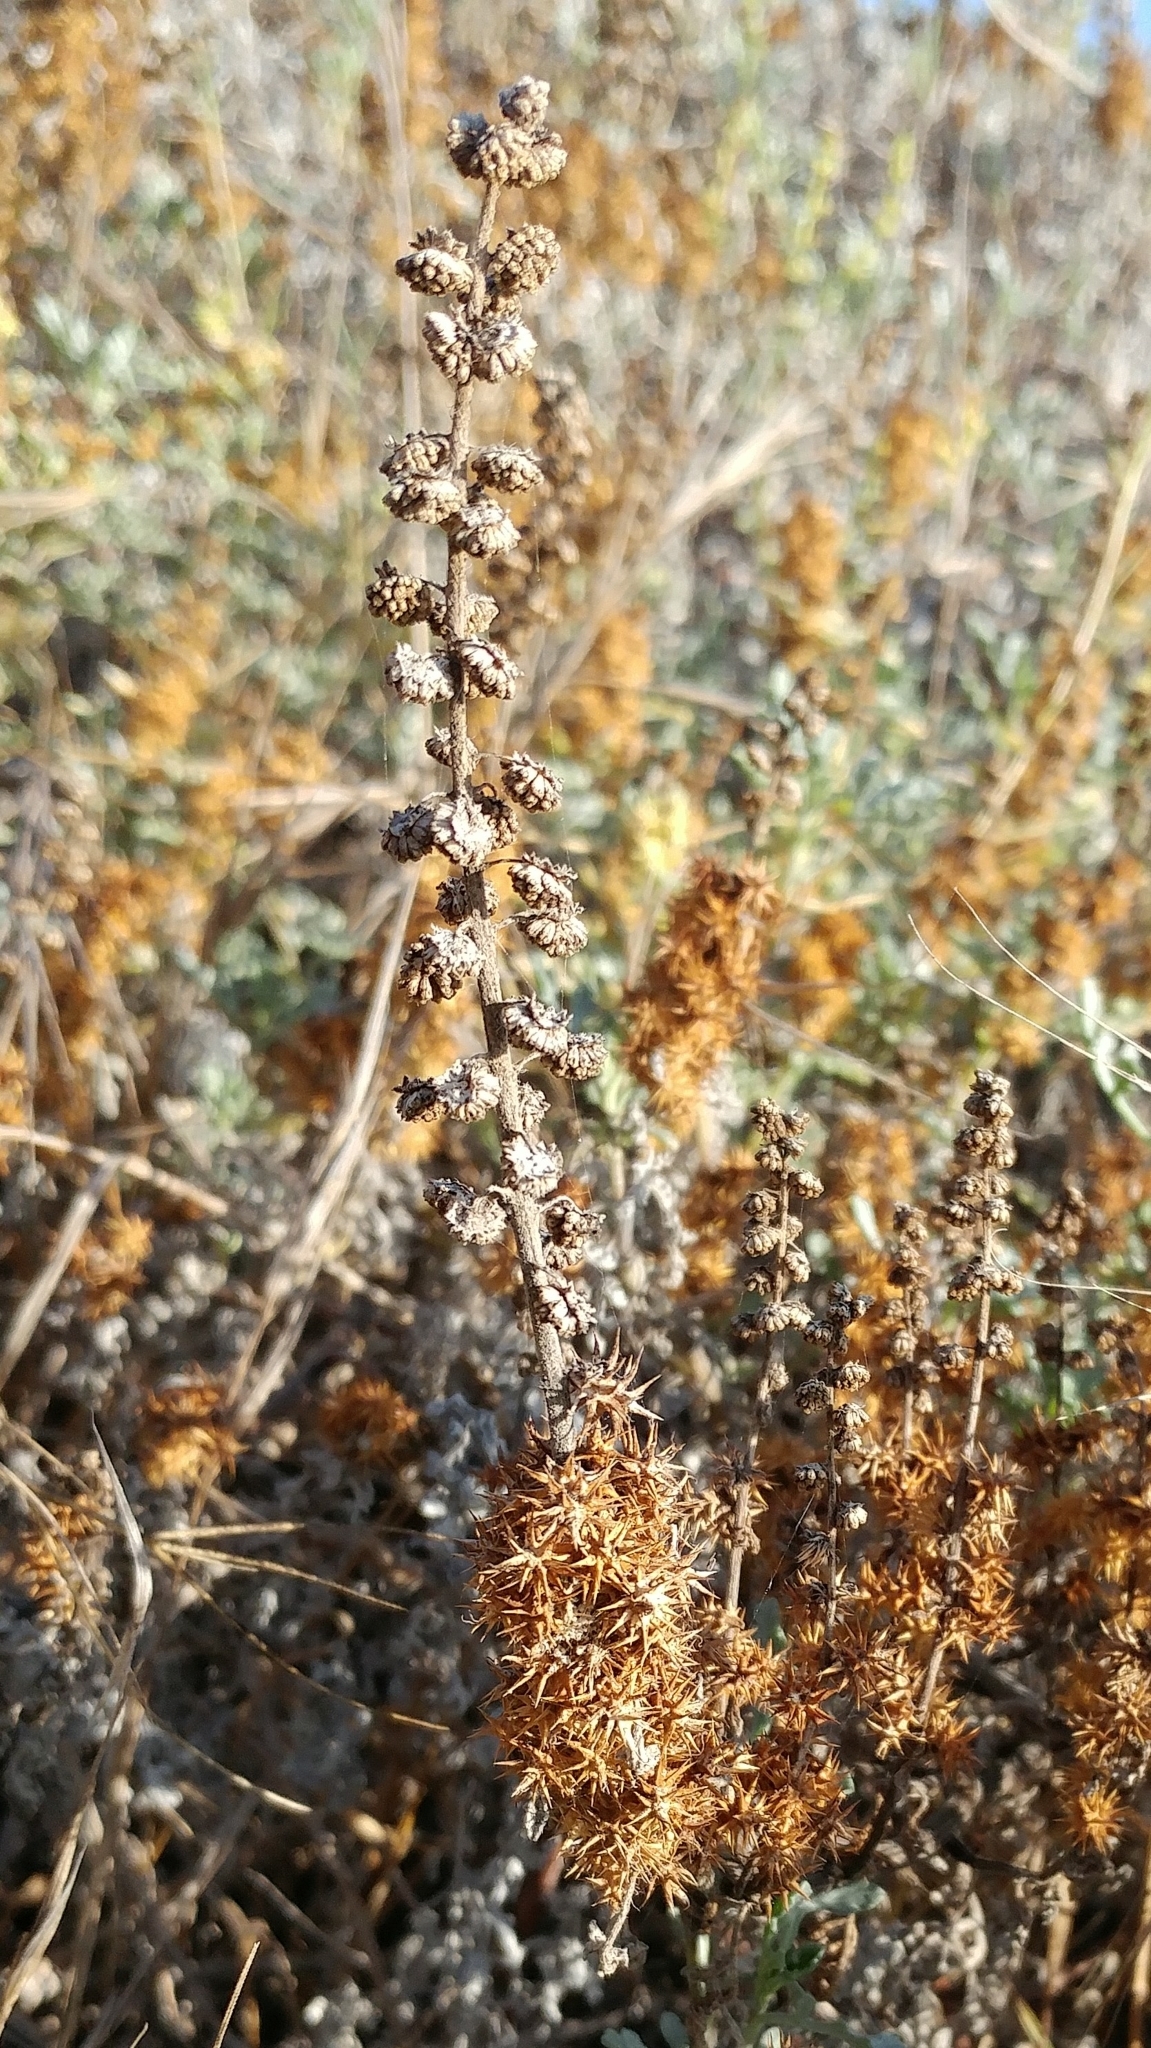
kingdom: Plantae
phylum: Tracheophyta
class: Magnoliopsida
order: Asterales
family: Asteraceae
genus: Ambrosia
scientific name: Ambrosia chamissonis
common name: Beachbur
